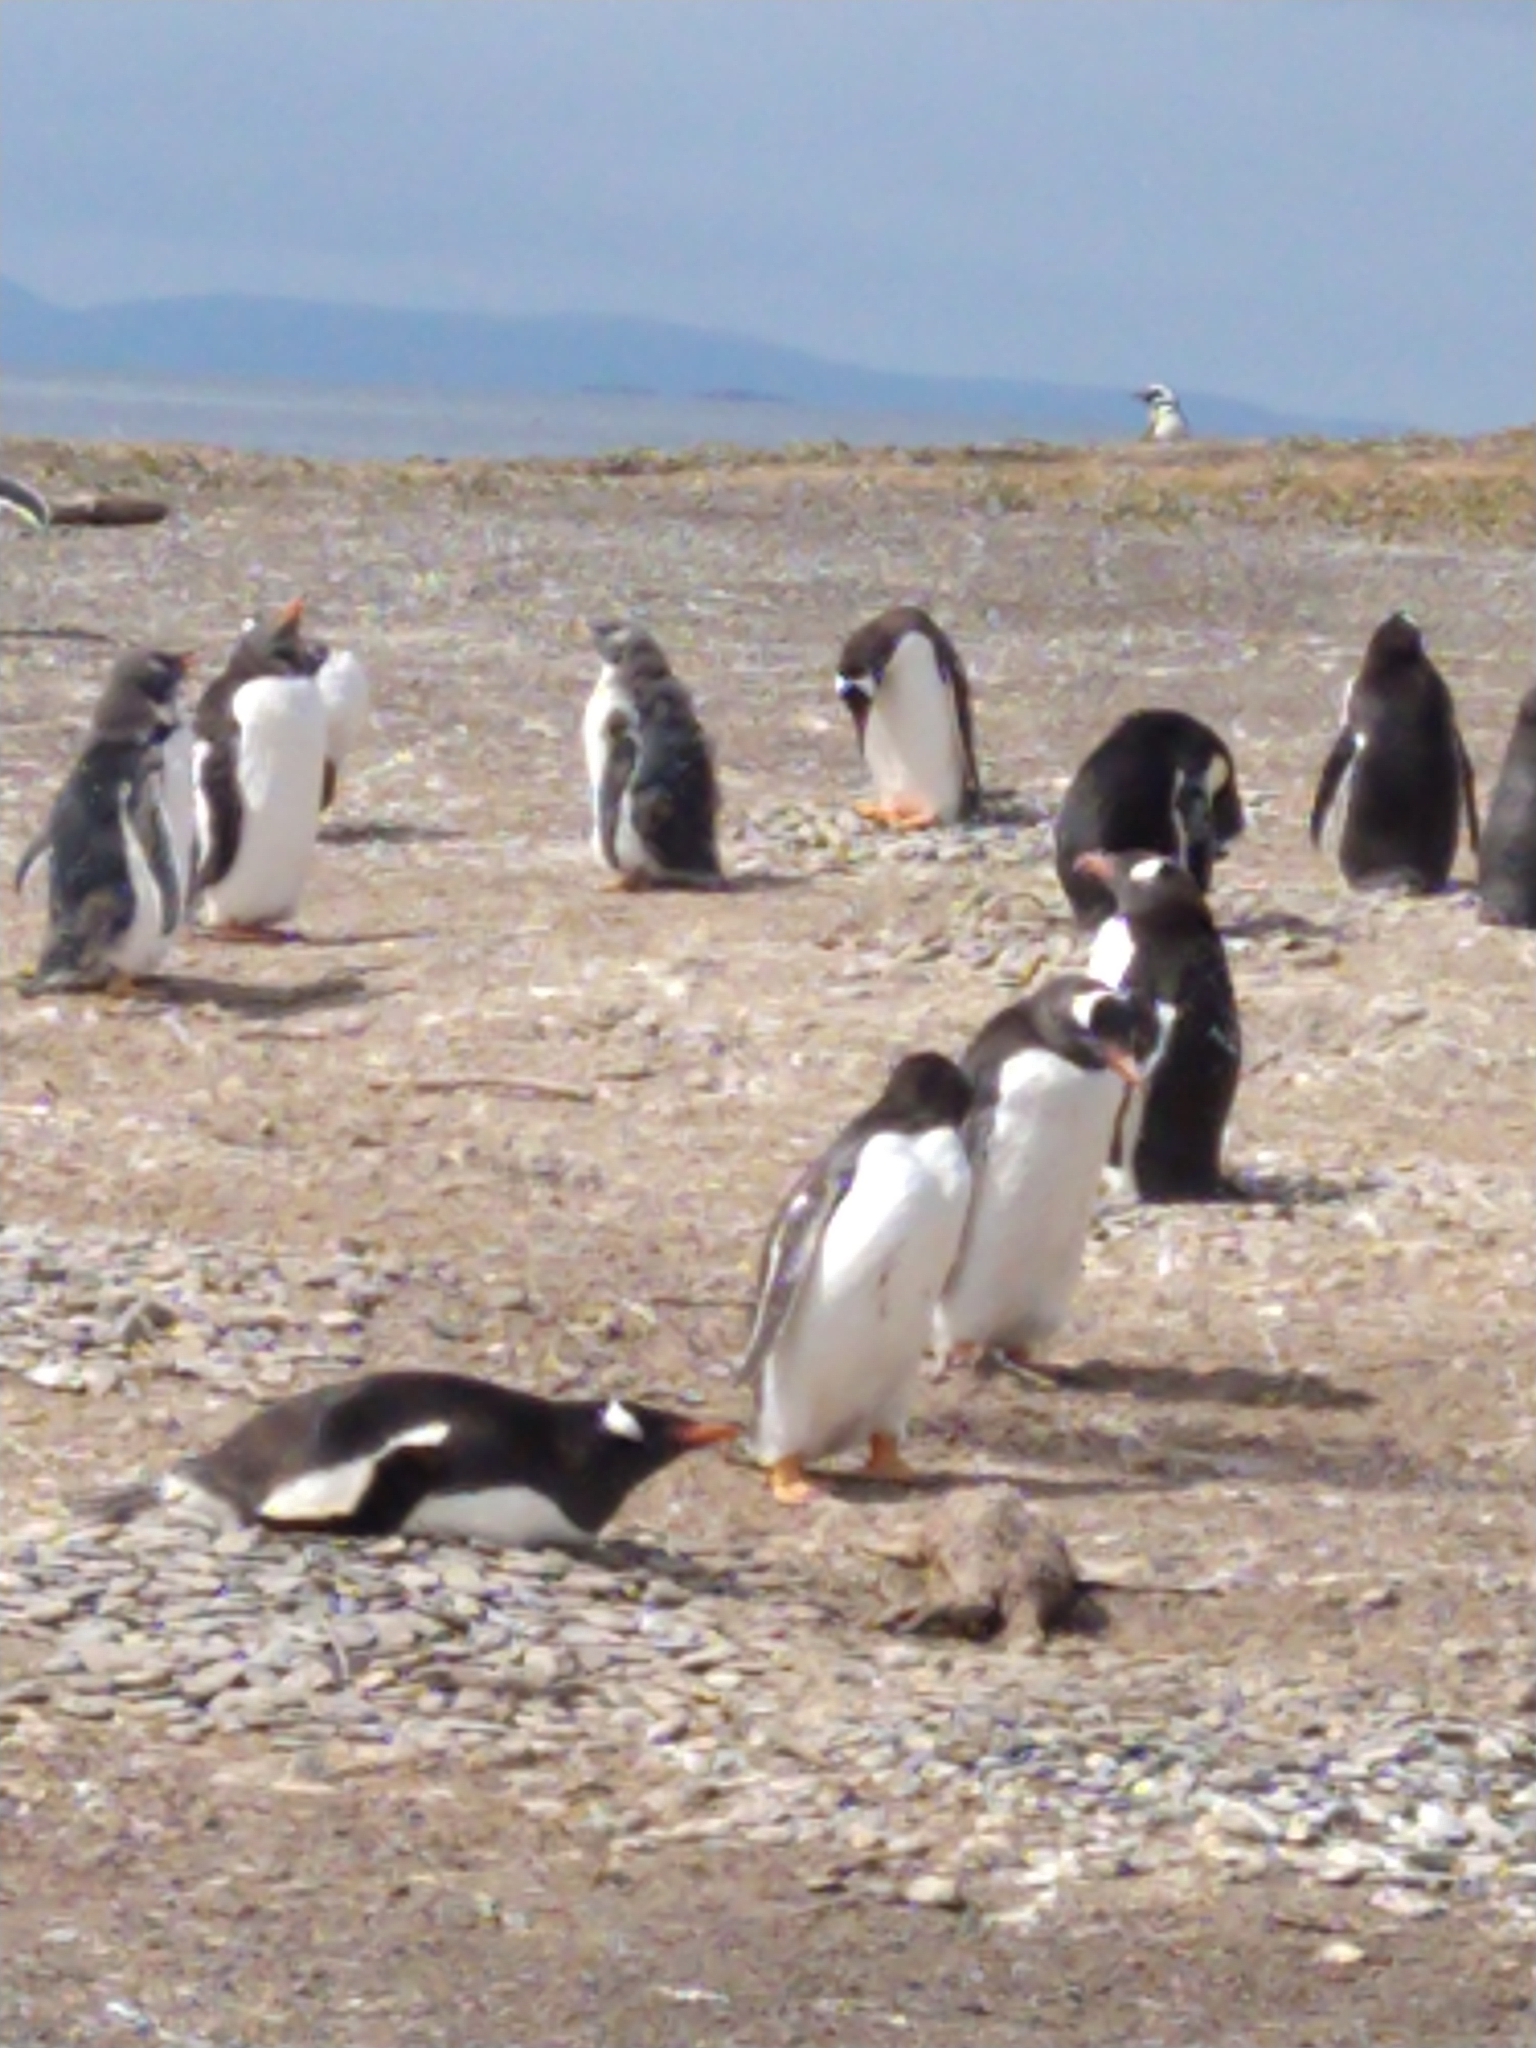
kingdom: Animalia
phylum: Chordata
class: Aves
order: Sphenisciformes
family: Spheniscidae
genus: Pygoscelis
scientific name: Pygoscelis papua
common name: Gentoo penguin
